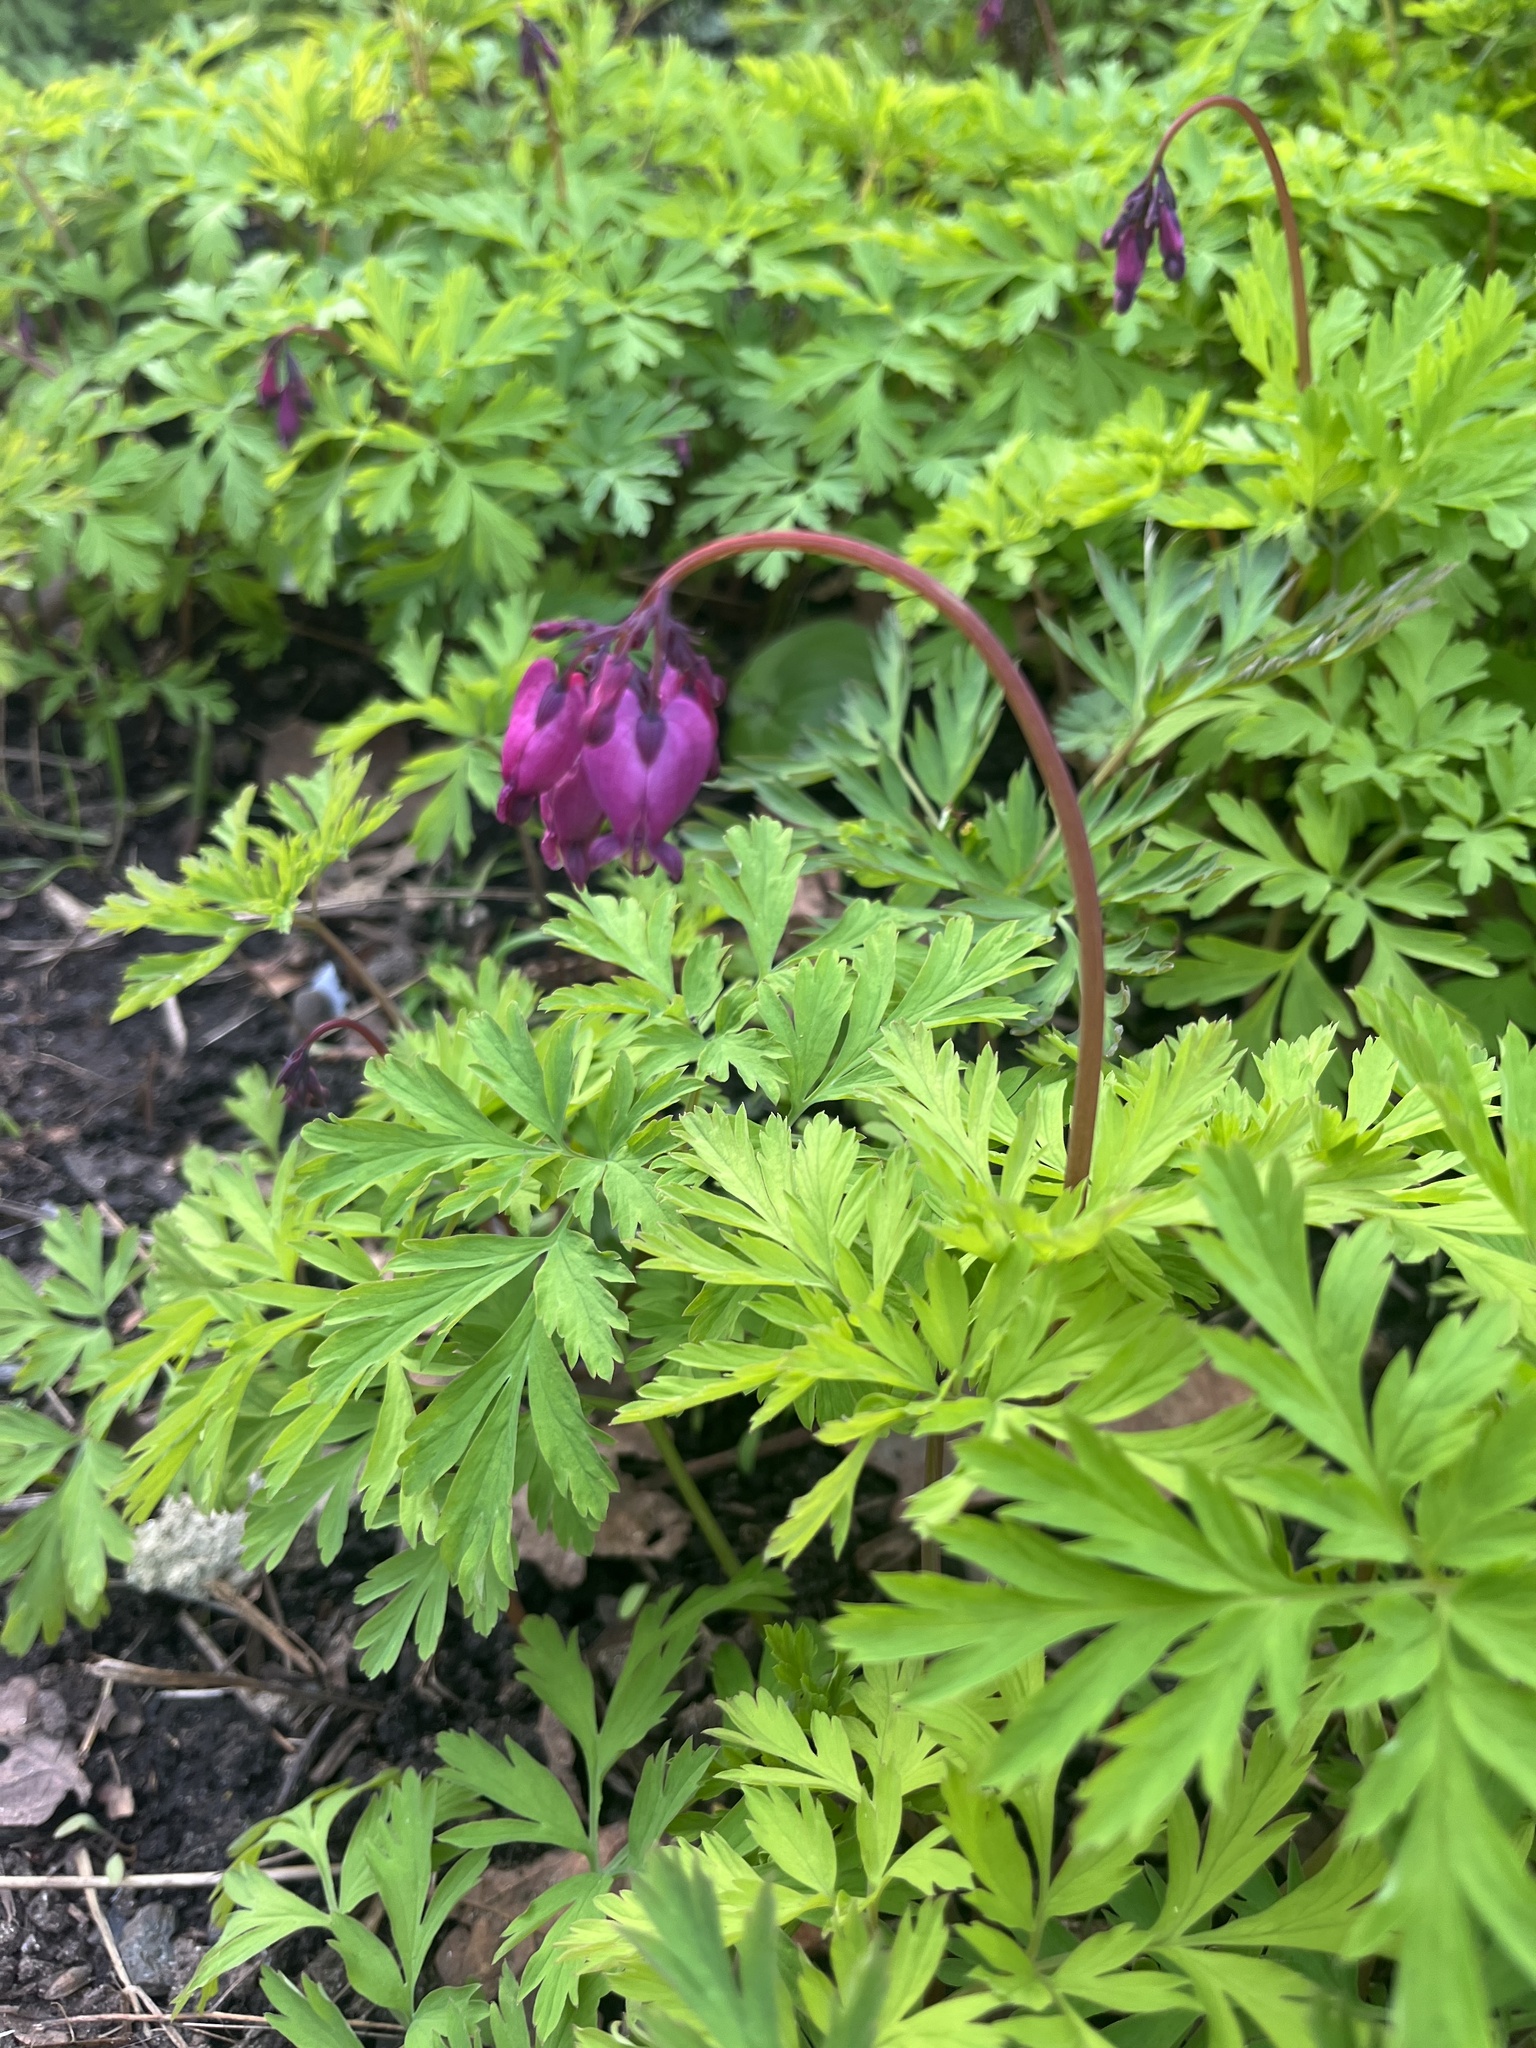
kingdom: Plantae
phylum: Tracheophyta
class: Magnoliopsida
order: Ranunculales
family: Papaveraceae
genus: Dicentra
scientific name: Dicentra formosa
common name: Bleeding-heart
